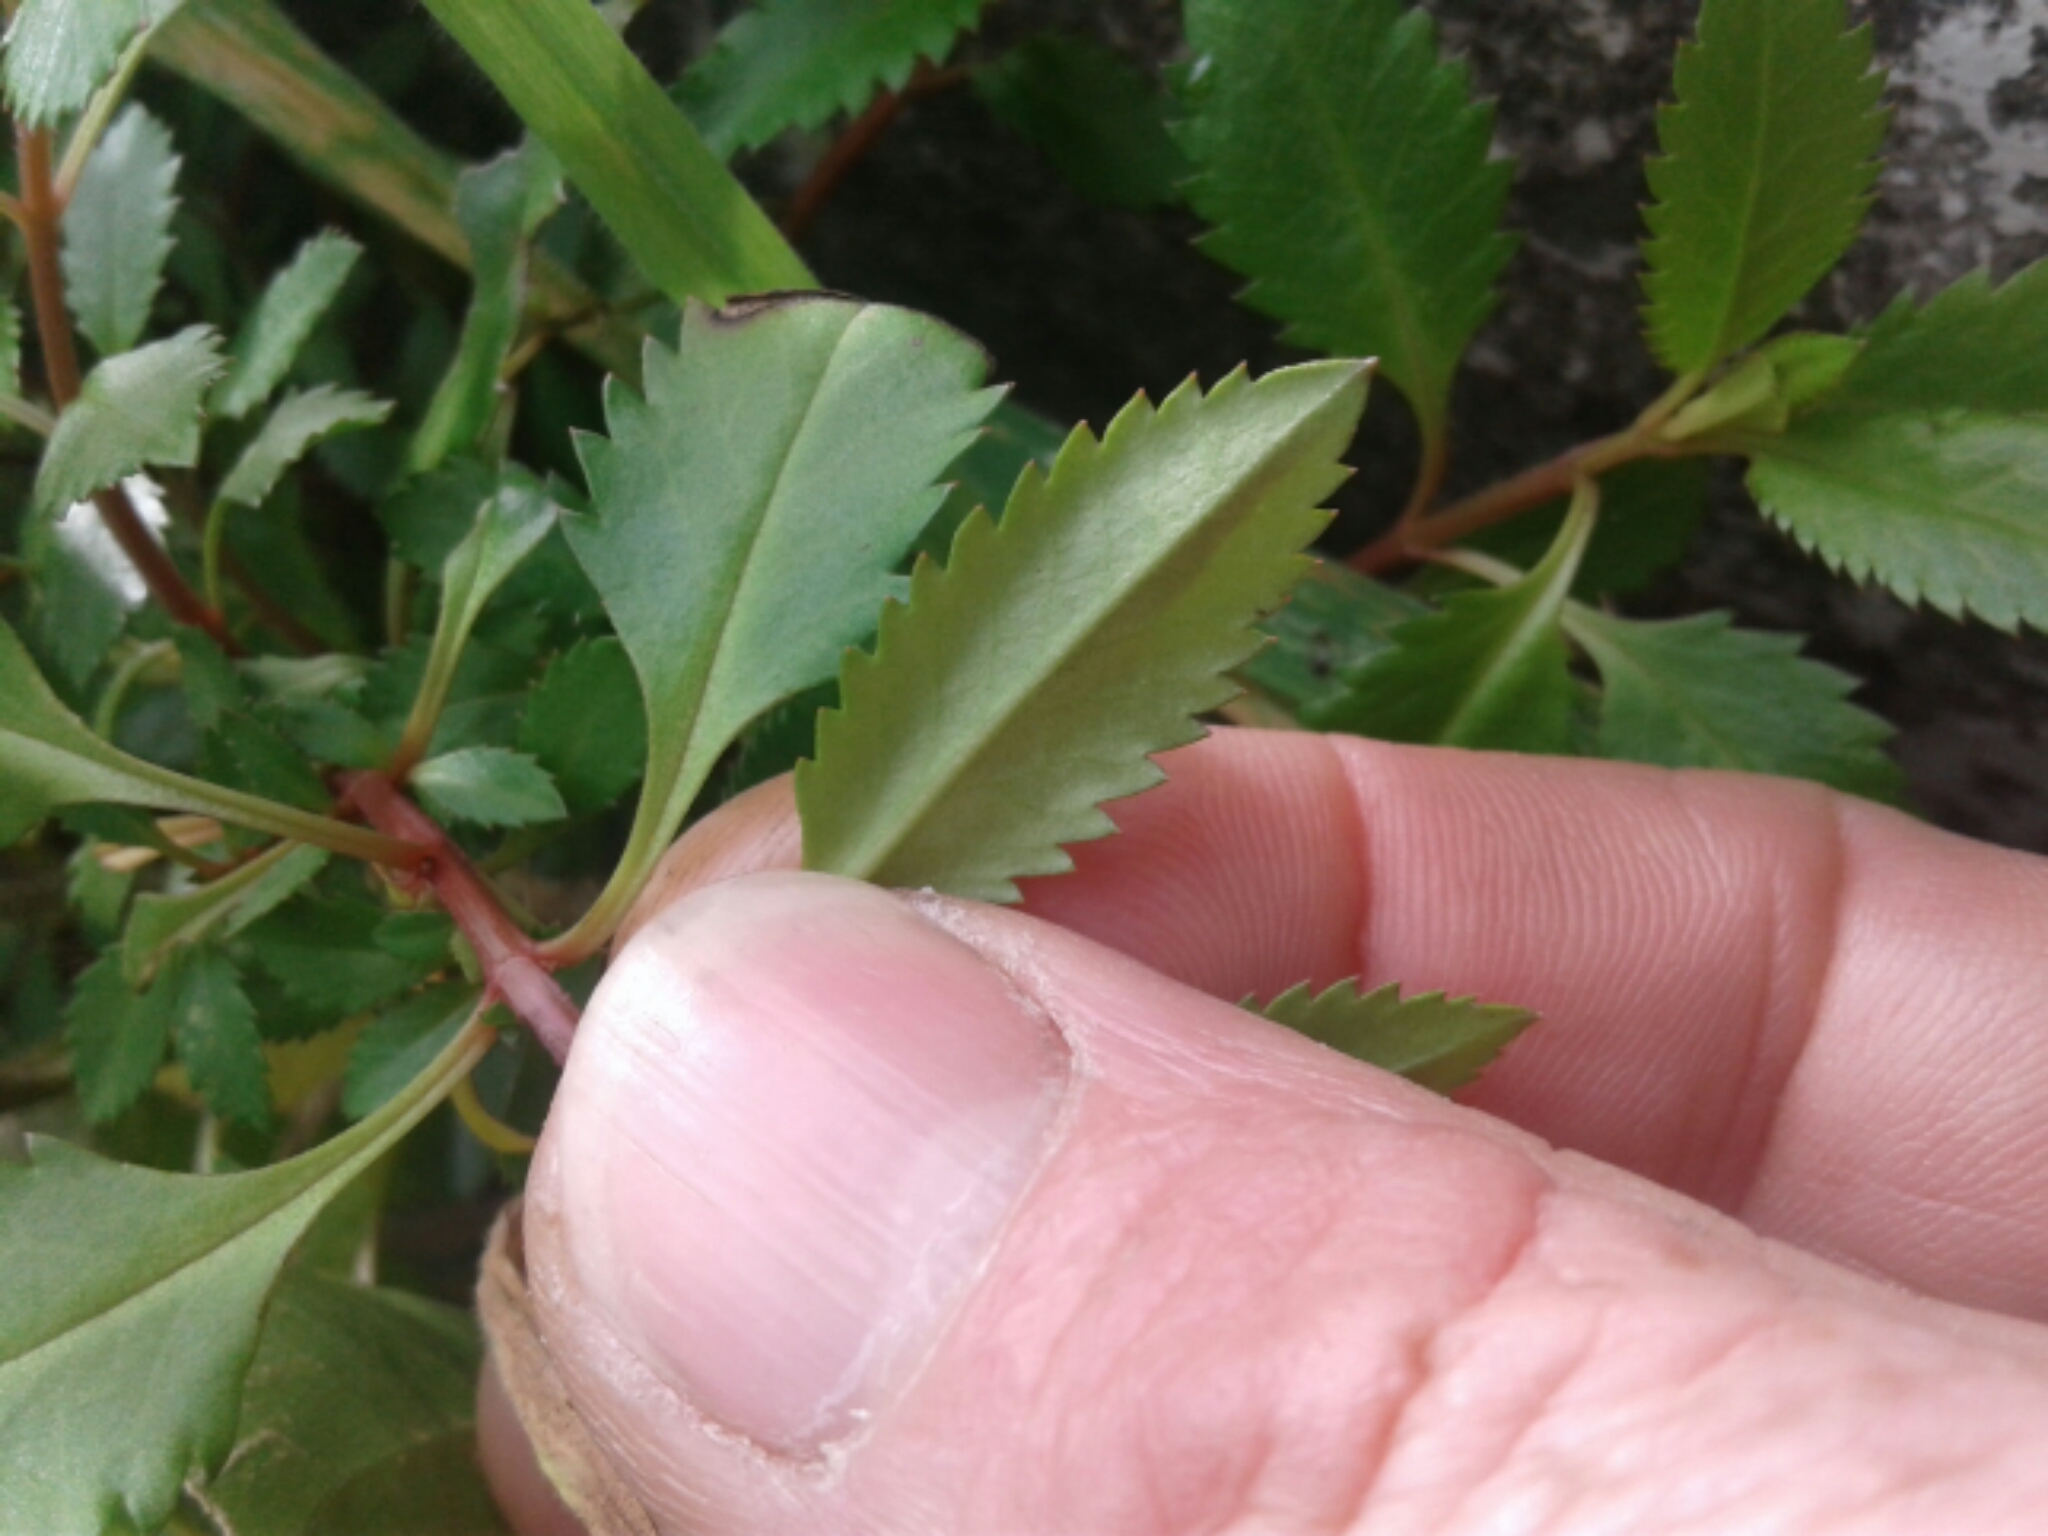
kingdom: Plantae
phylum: Tracheophyta
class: Magnoliopsida
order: Saxifragales
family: Haloragaceae
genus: Haloragis
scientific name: Haloragis erecta
